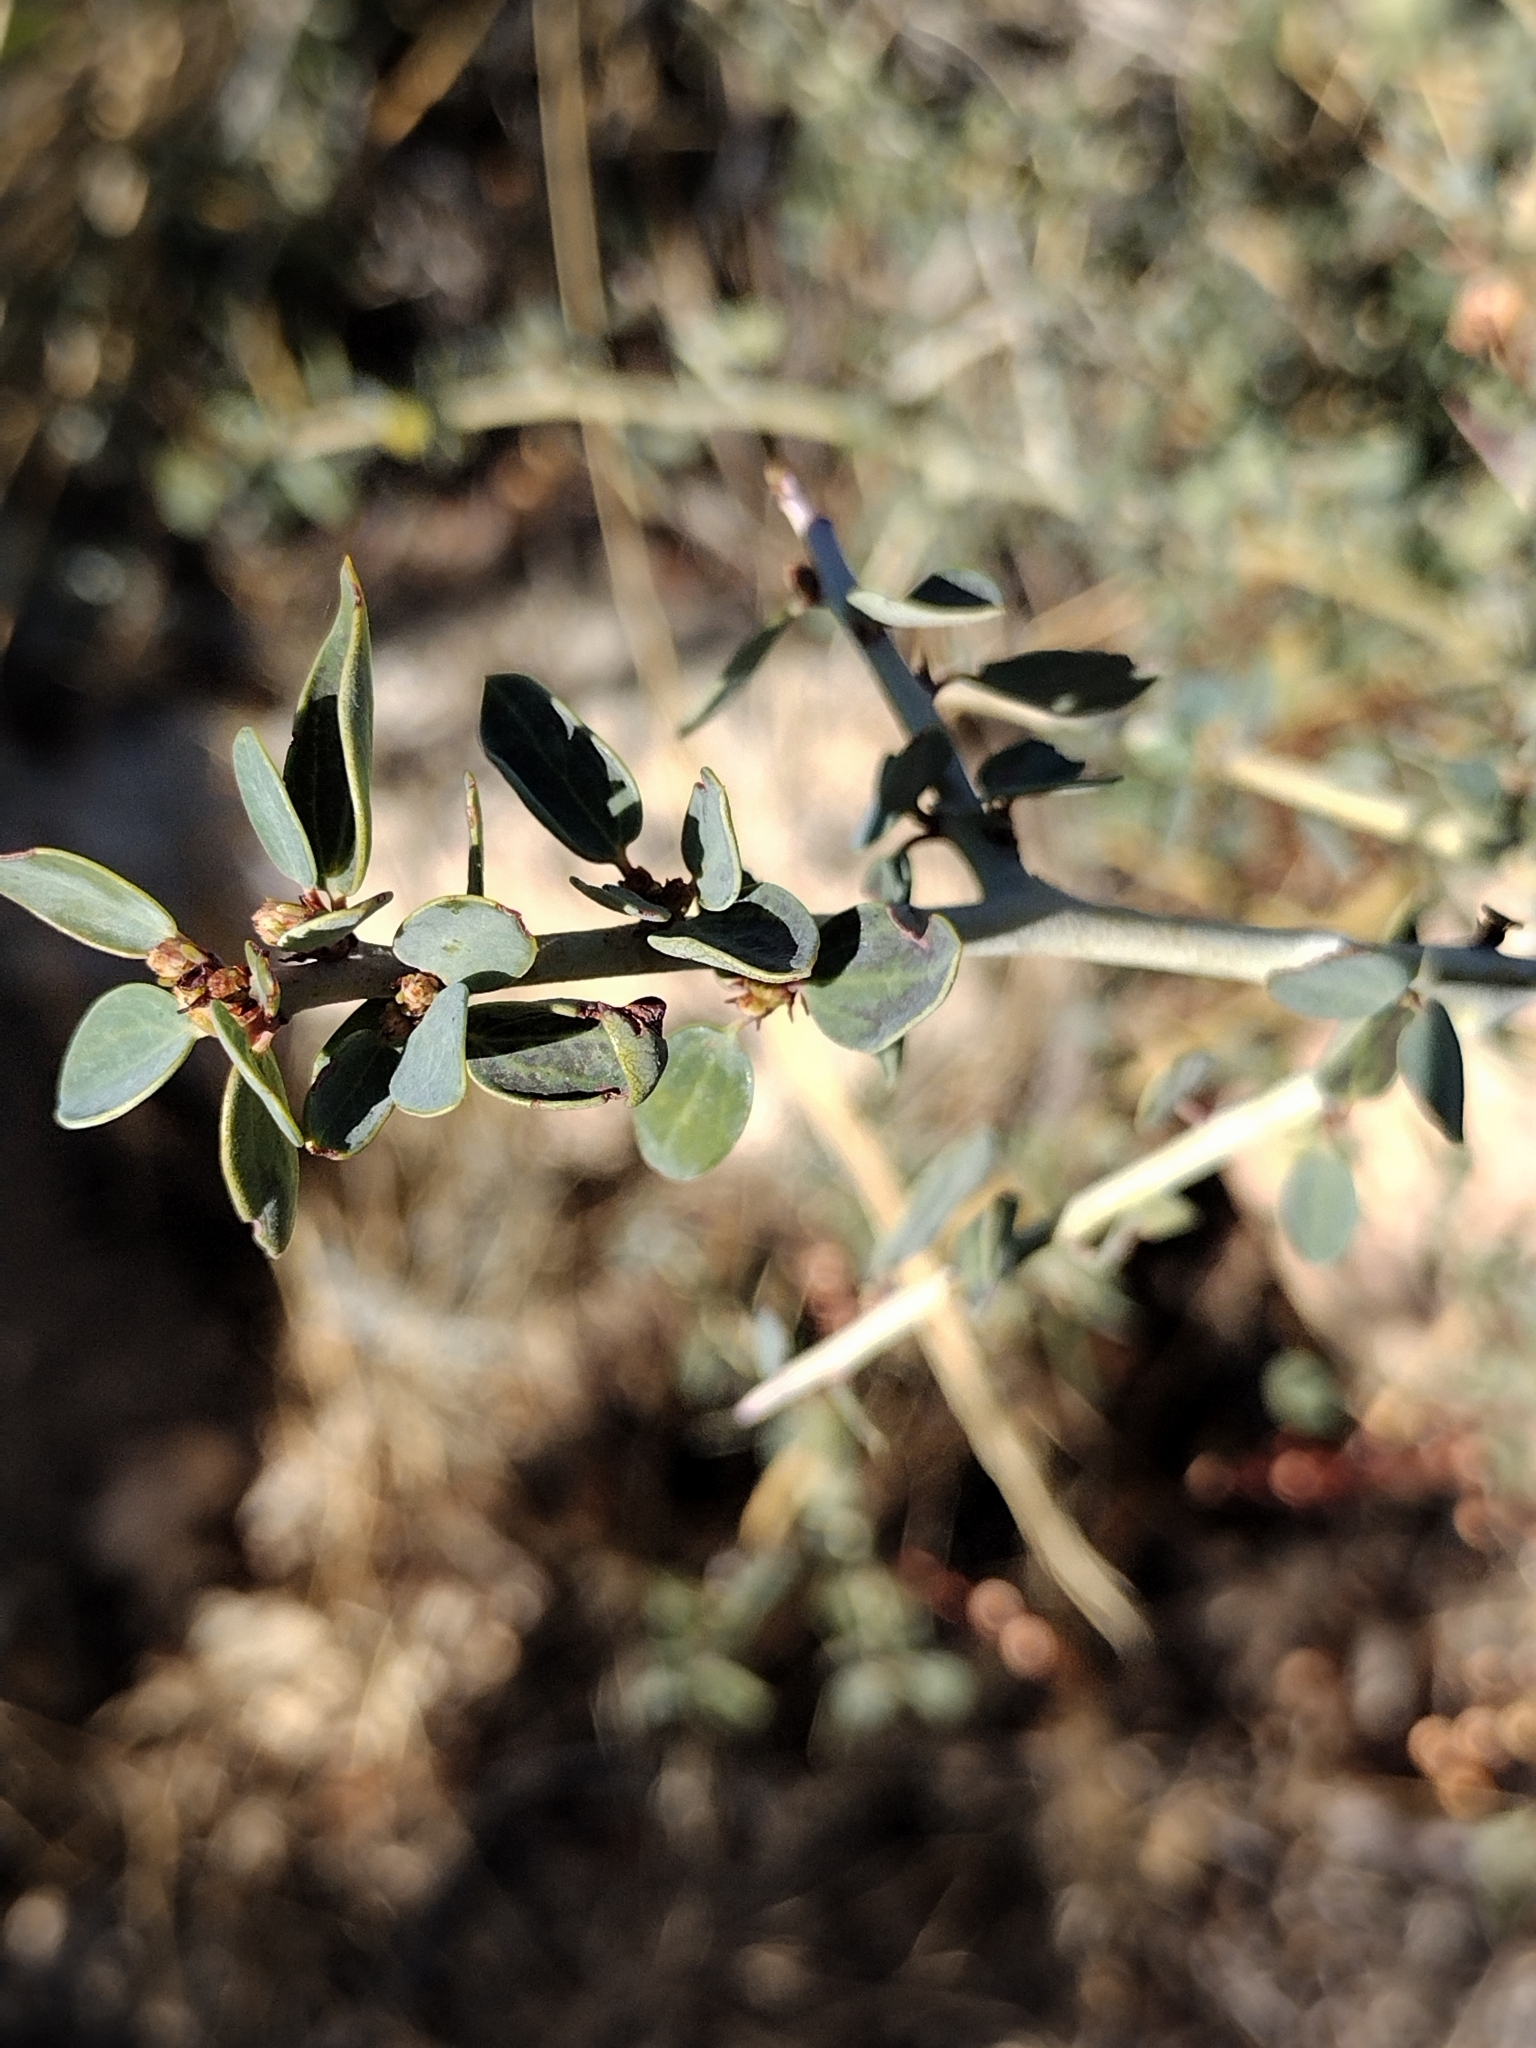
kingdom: Plantae
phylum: Tracheophyta
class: Magnoliopsida
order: Rosales
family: Rhamnaceae
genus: Ceanothus
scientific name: Ceanothus leucodermis
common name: Chaparral whitethorn
